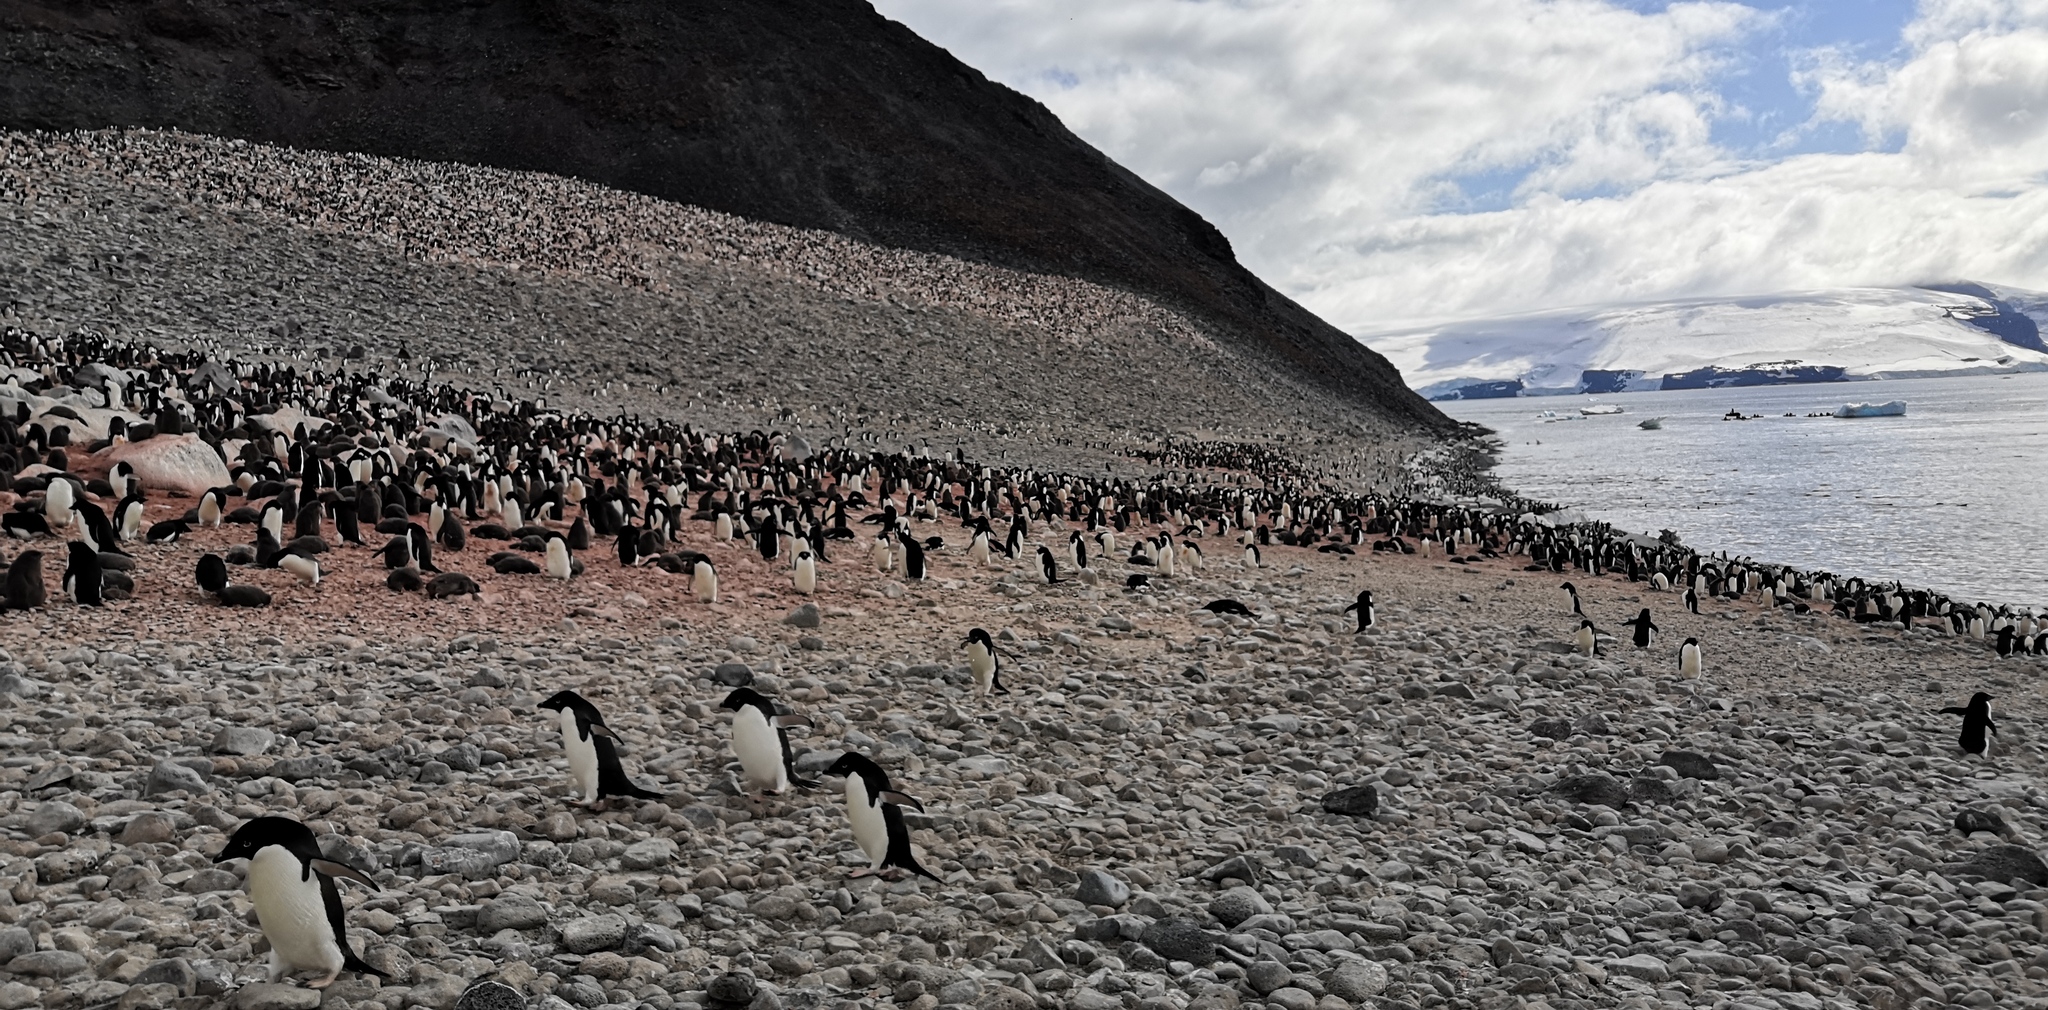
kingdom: Animalia
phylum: Chordata
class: Aves
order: Sphenisciformes
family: Spheniscidae
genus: Pygoscelis
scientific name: Pygoscelis adeliae
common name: Adelie penguin
